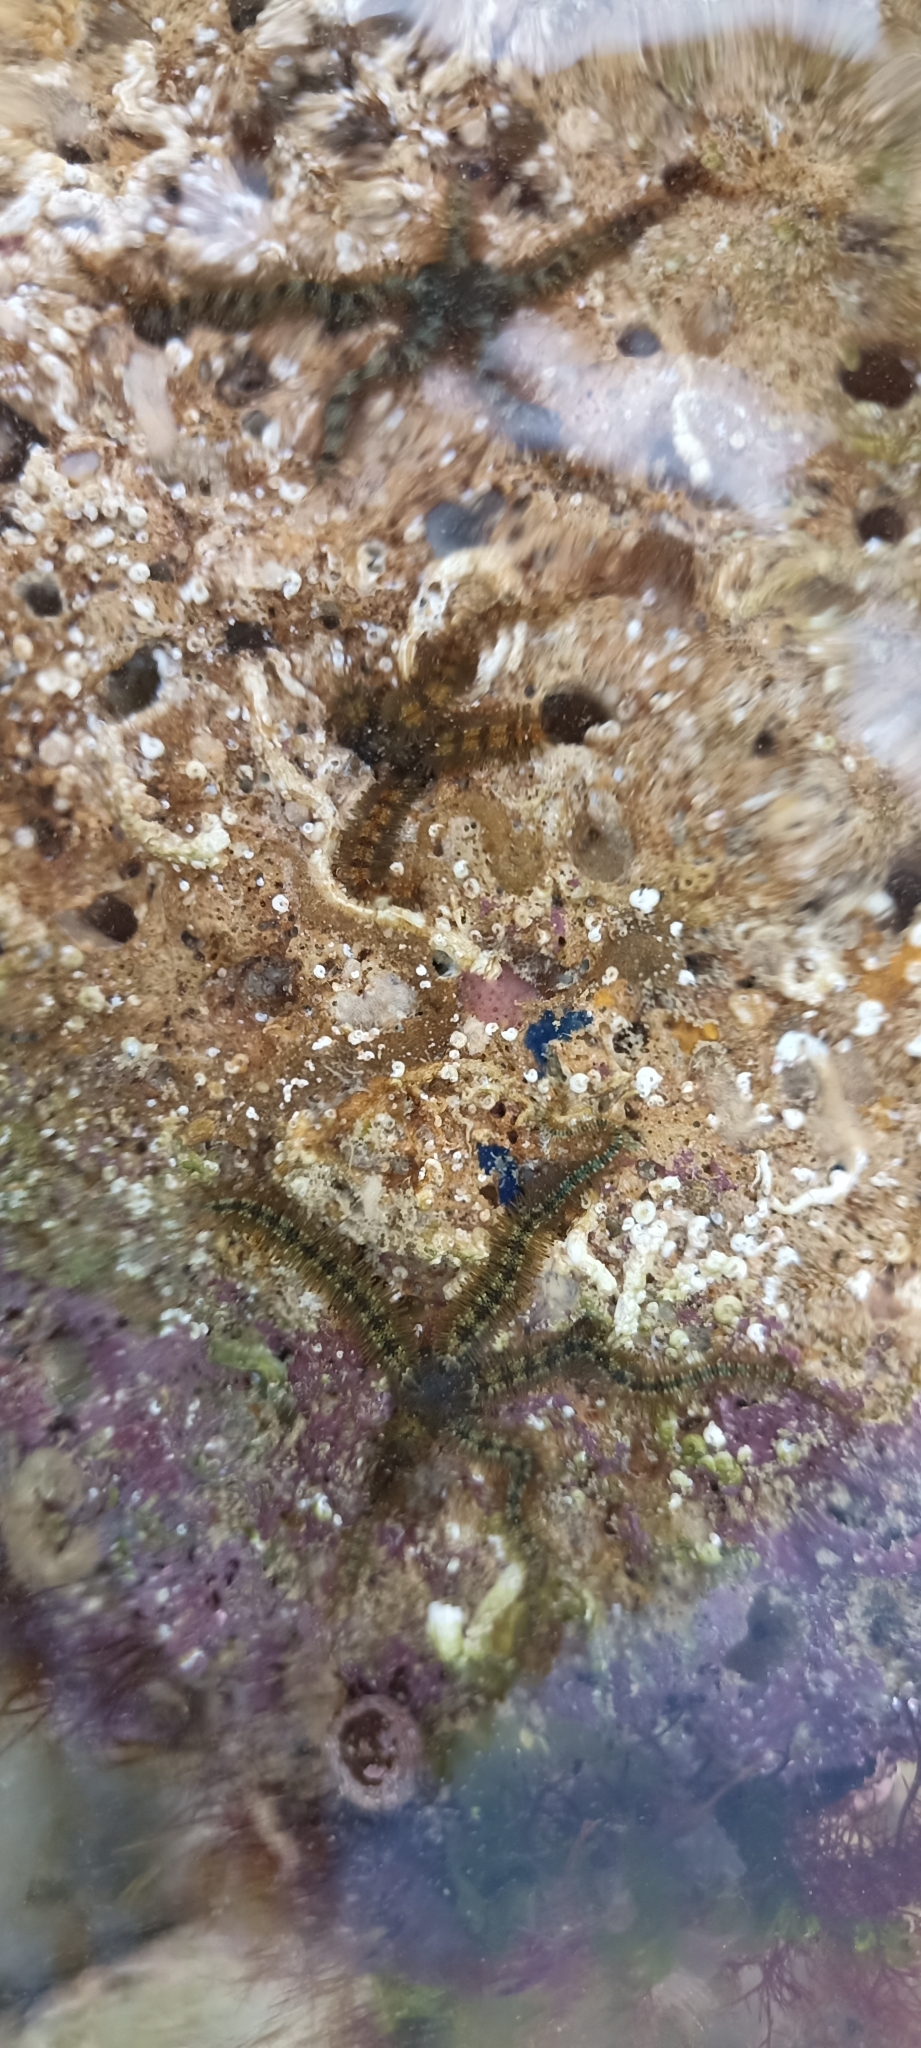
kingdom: Animalia
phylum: Echinodermata
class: Ophiuroidea
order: Amphilepidida
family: Ophiotrichidae
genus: Ophiothrix
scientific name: Ophiothrix fragilis
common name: Common brittlestar
